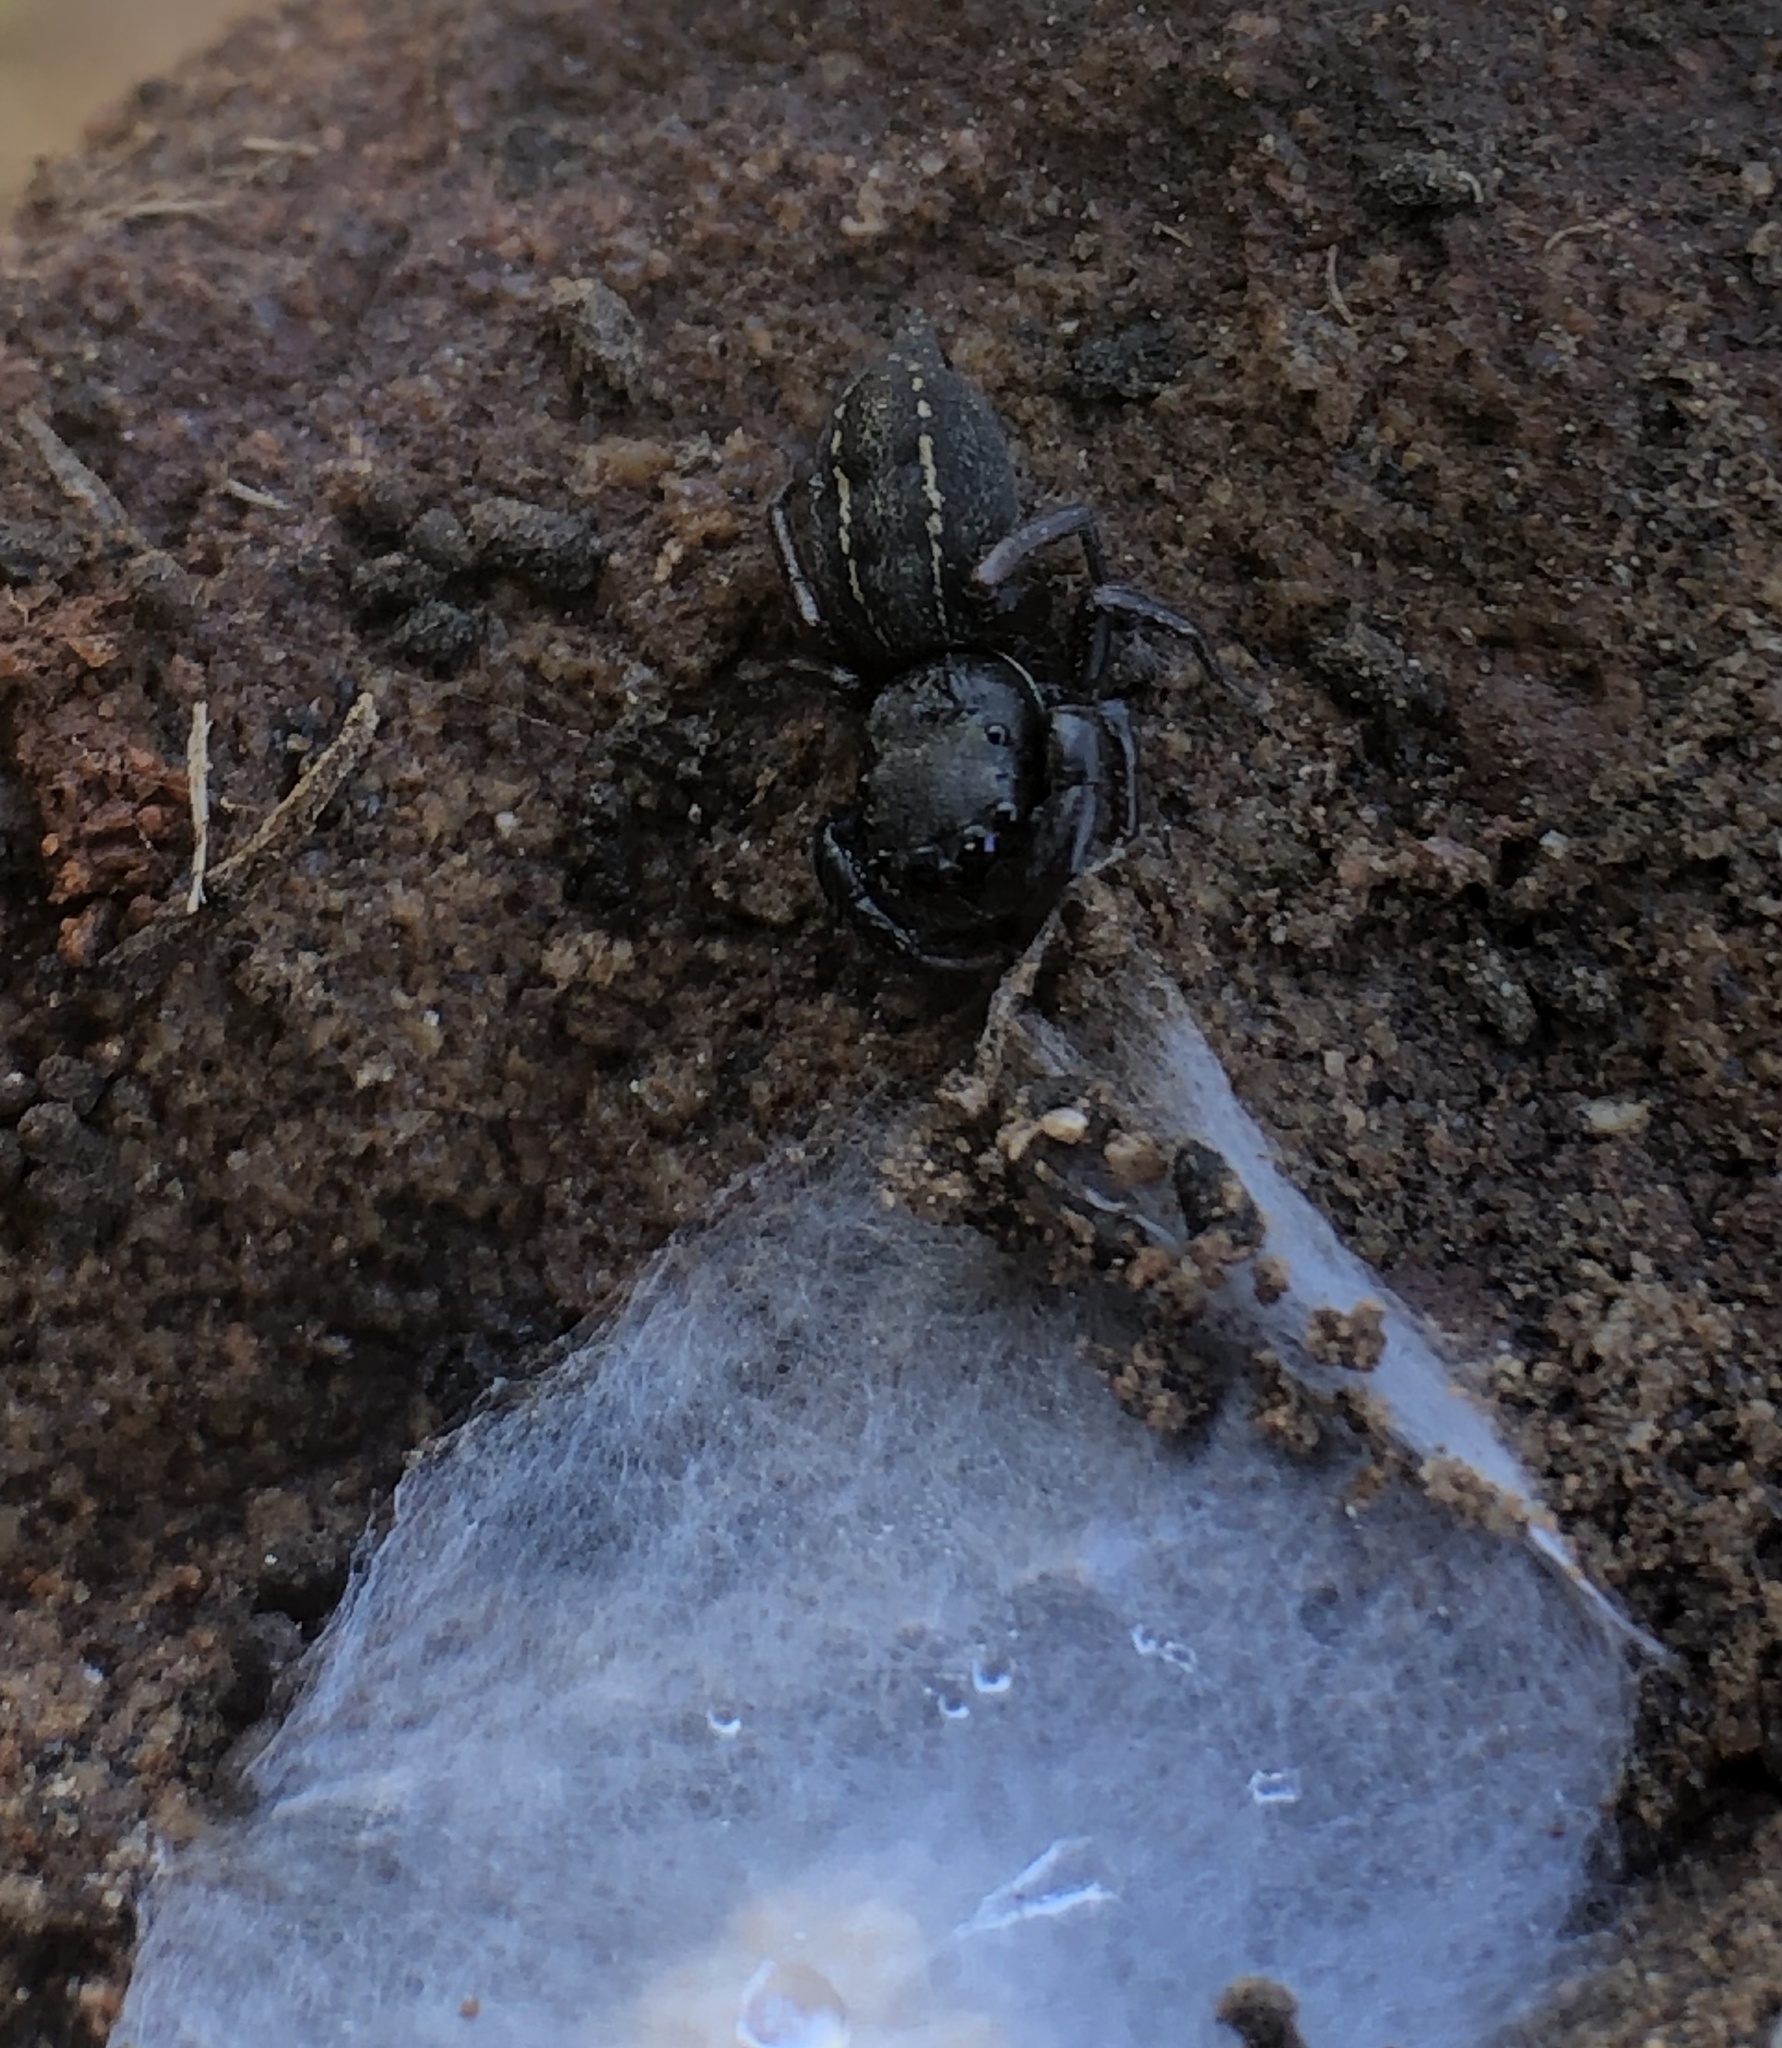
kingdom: Animalia
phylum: Arthropoda
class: Arachnida
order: Araneae
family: Salticidae
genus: Metacyrba
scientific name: Metacyrba taeniola
